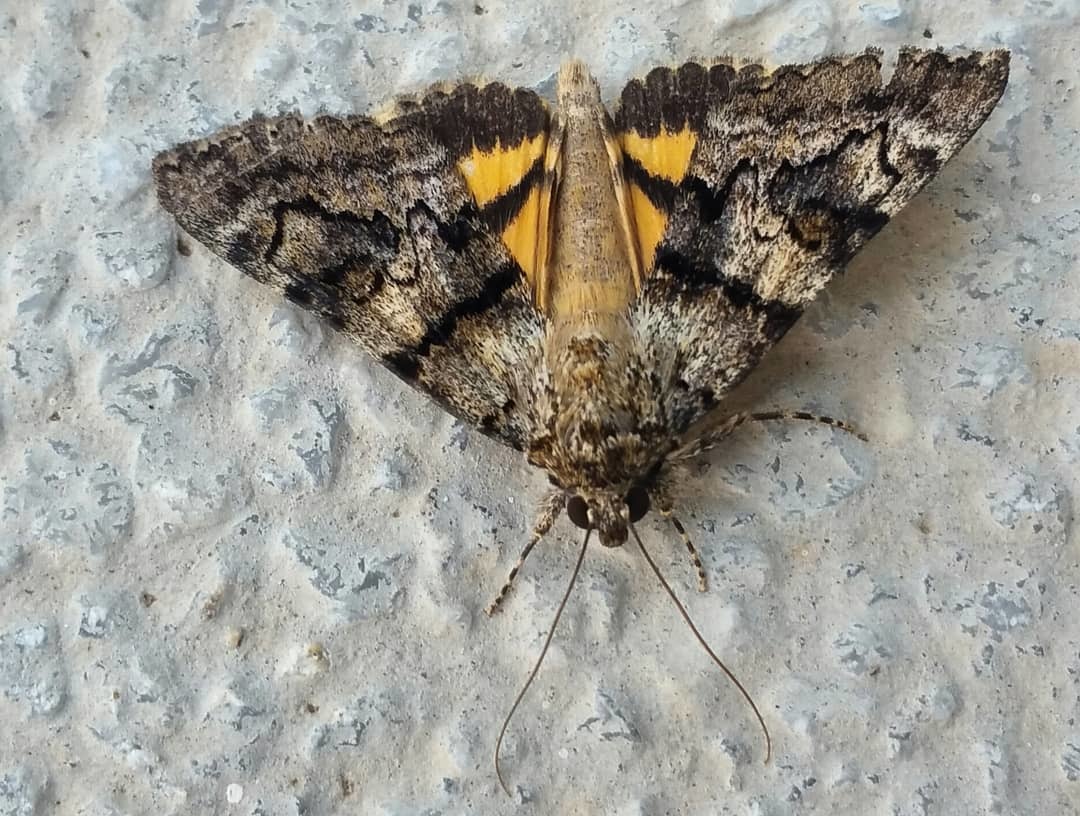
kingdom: Animalia
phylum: Arthropoda
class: Insecta
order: Lepidoptera
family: Erebidae
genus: Catocala
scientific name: Catocala nymphagoga
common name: Oak yellow underwing
